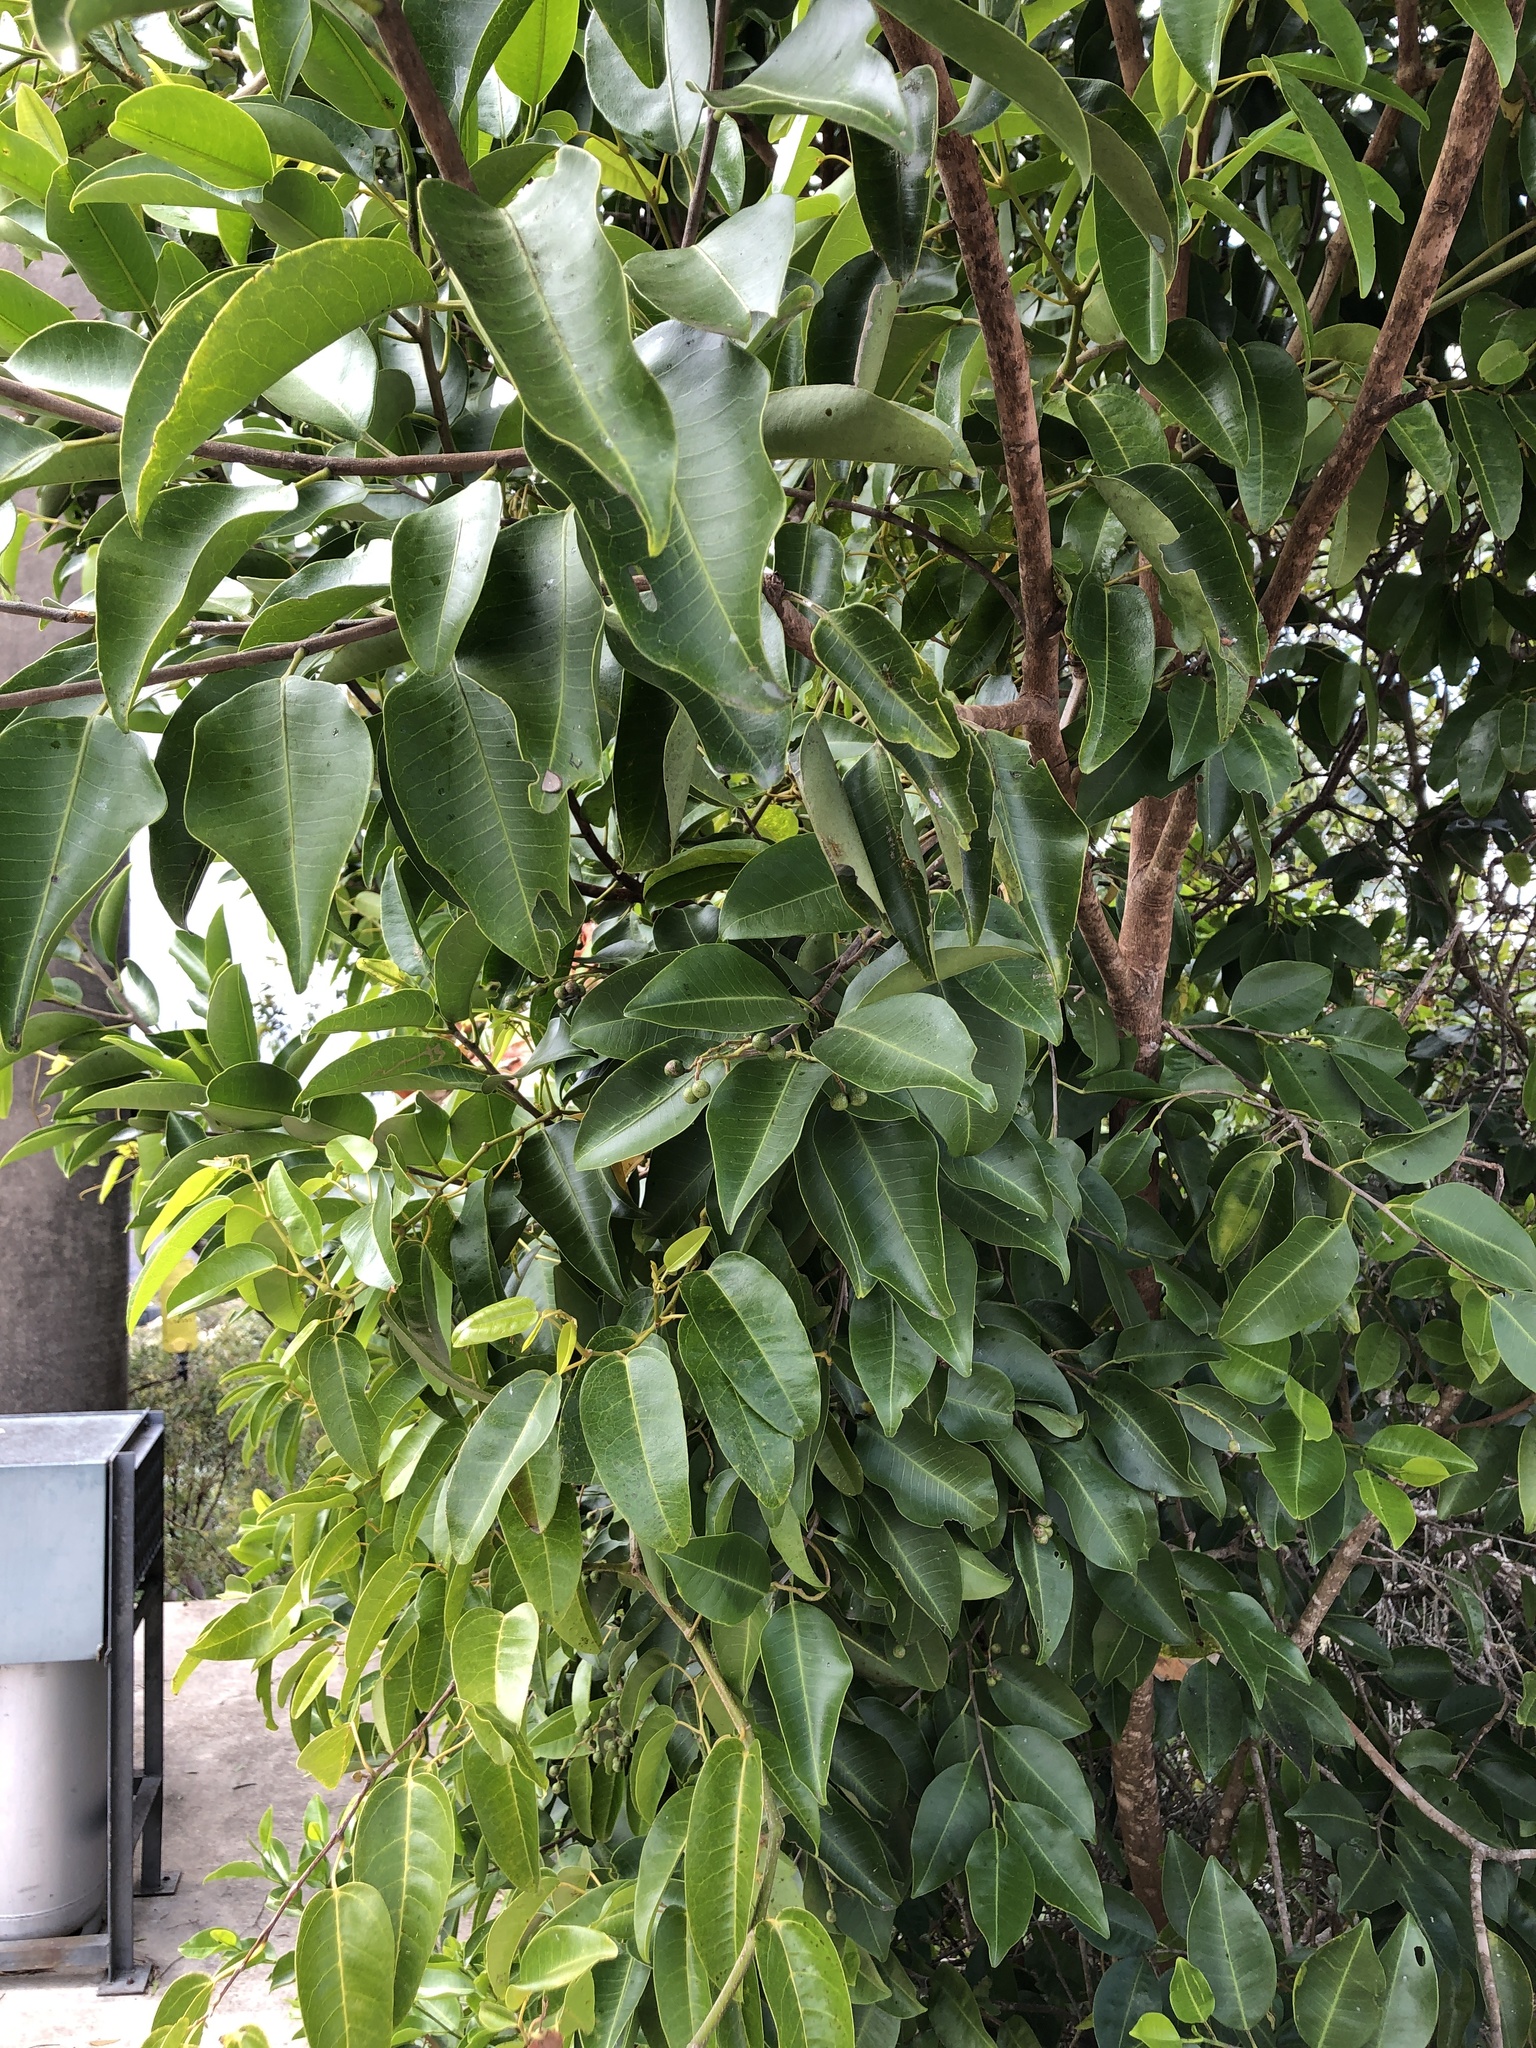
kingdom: Plantae
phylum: Tracheophyta
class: Magnoliopsida
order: Sapindales
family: Rutaceae
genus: Geijera
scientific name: Geijera salicifolia
